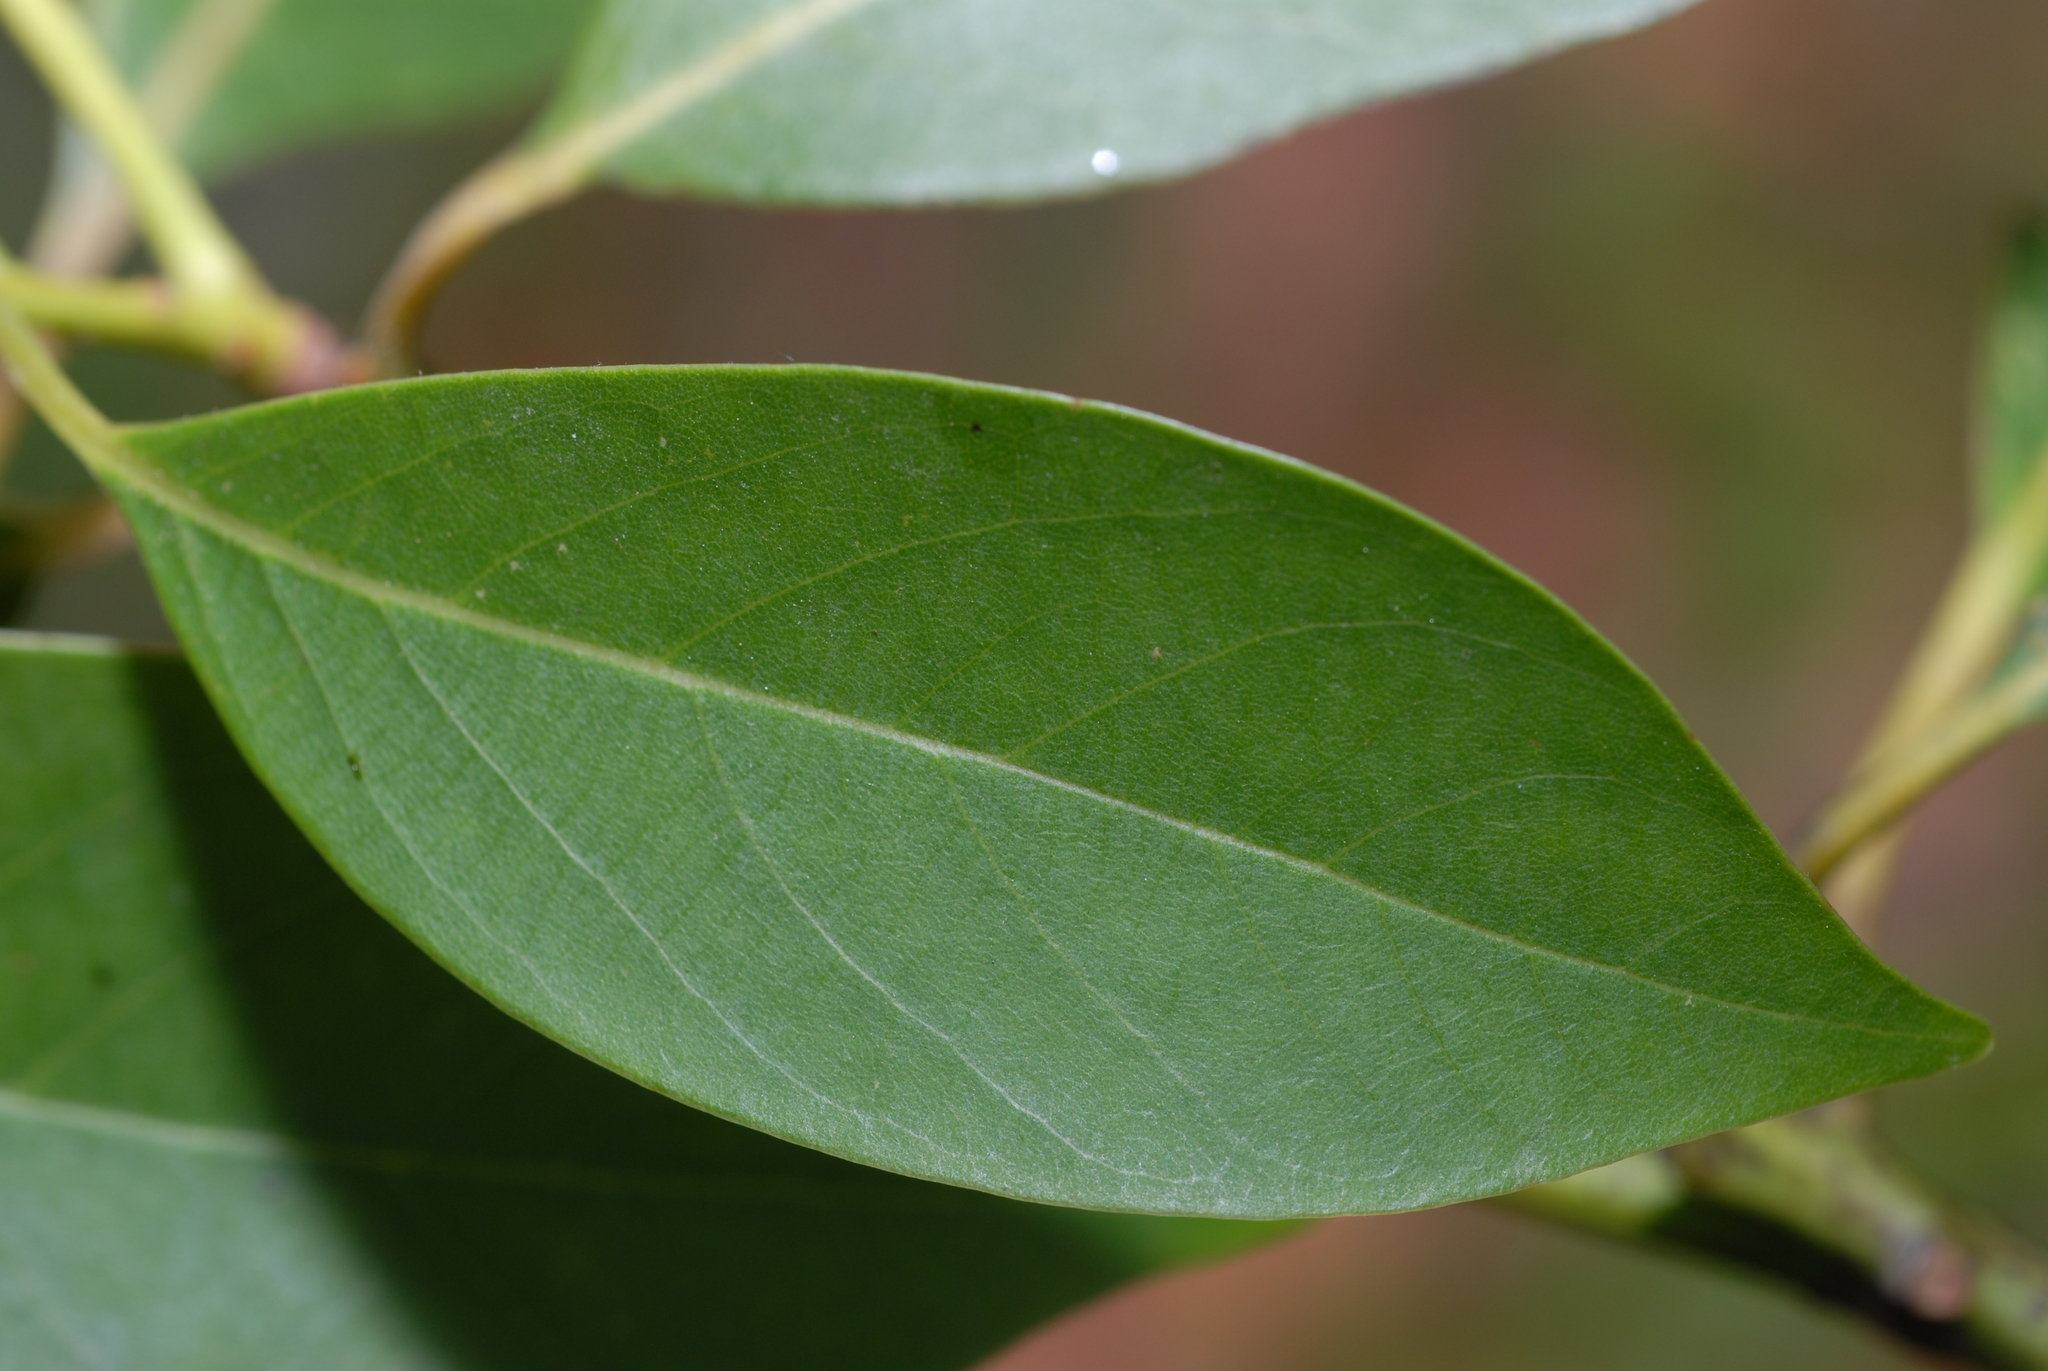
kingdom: Plantae
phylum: Tracheophyta
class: Magnoliopsida
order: Laurales
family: Lauraceae
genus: Machilus
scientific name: Machilus zuihoensis
